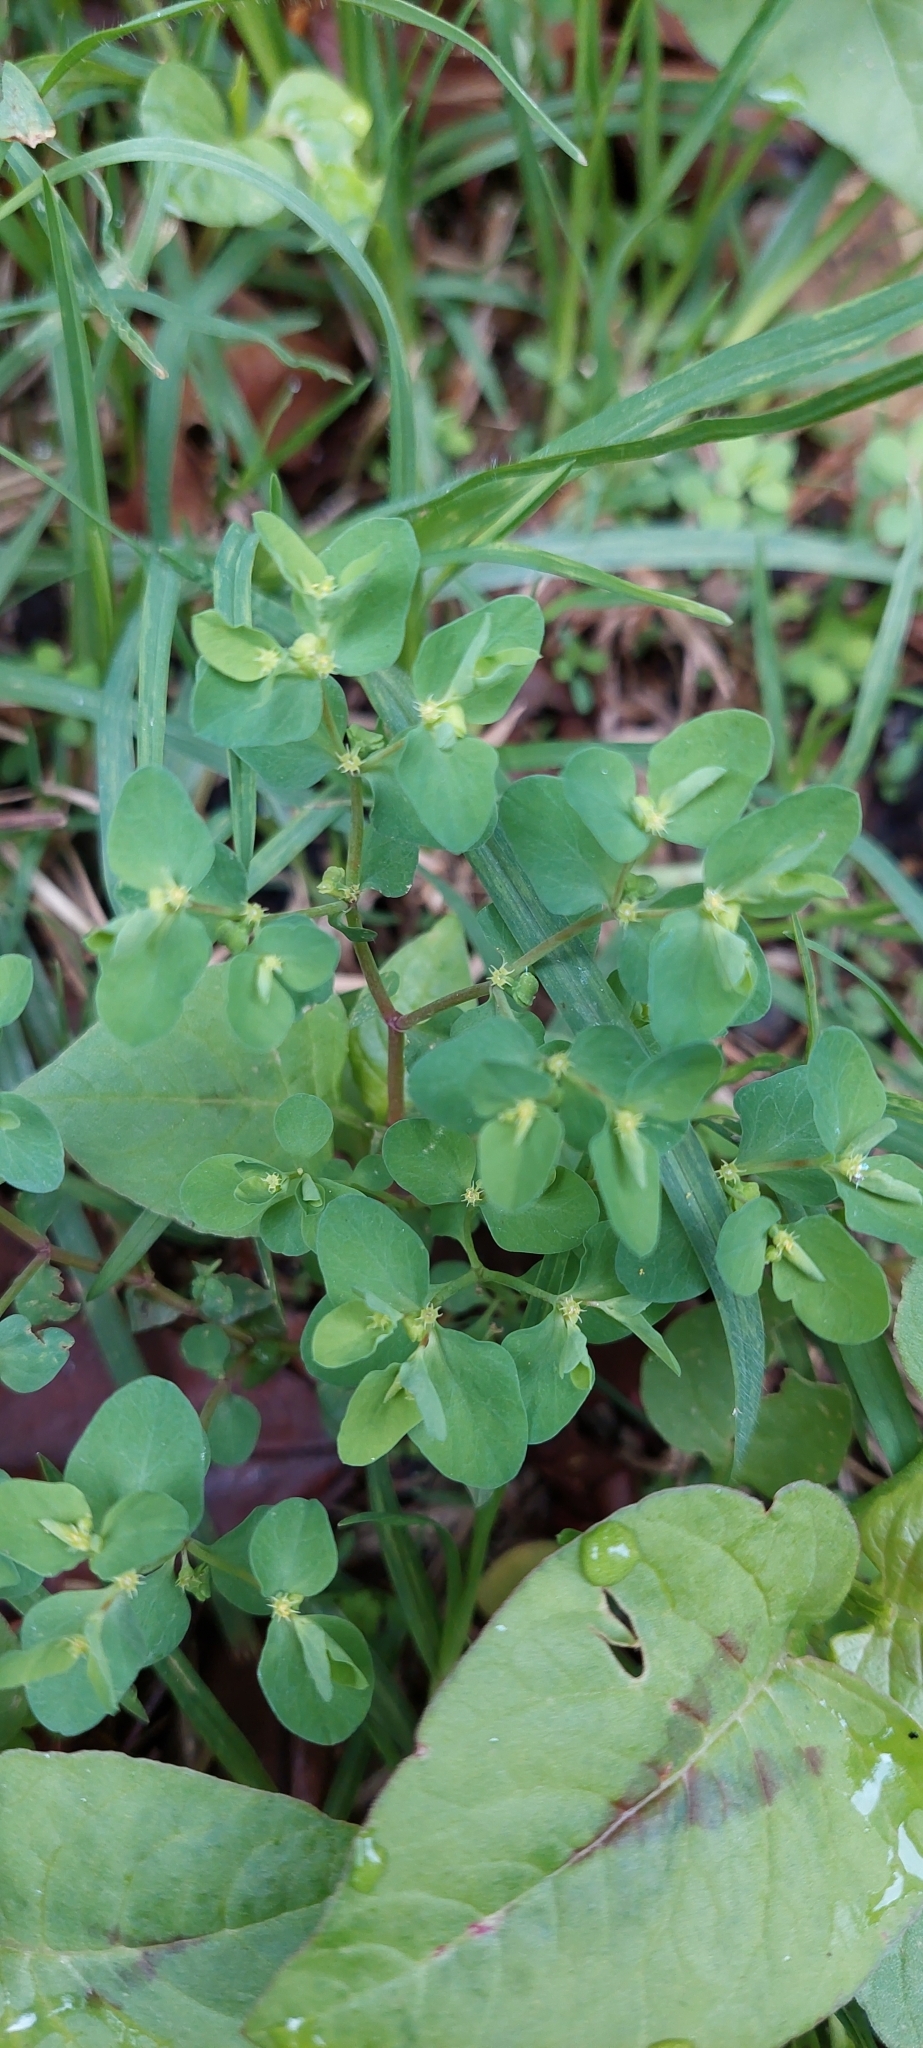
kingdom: Plantae
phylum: Tracheophyta
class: Magnoliopsida
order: Malpighiales
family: Euphorbiaceae
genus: Euphorbia
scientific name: Euphorbia peplus
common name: Petty spurge
